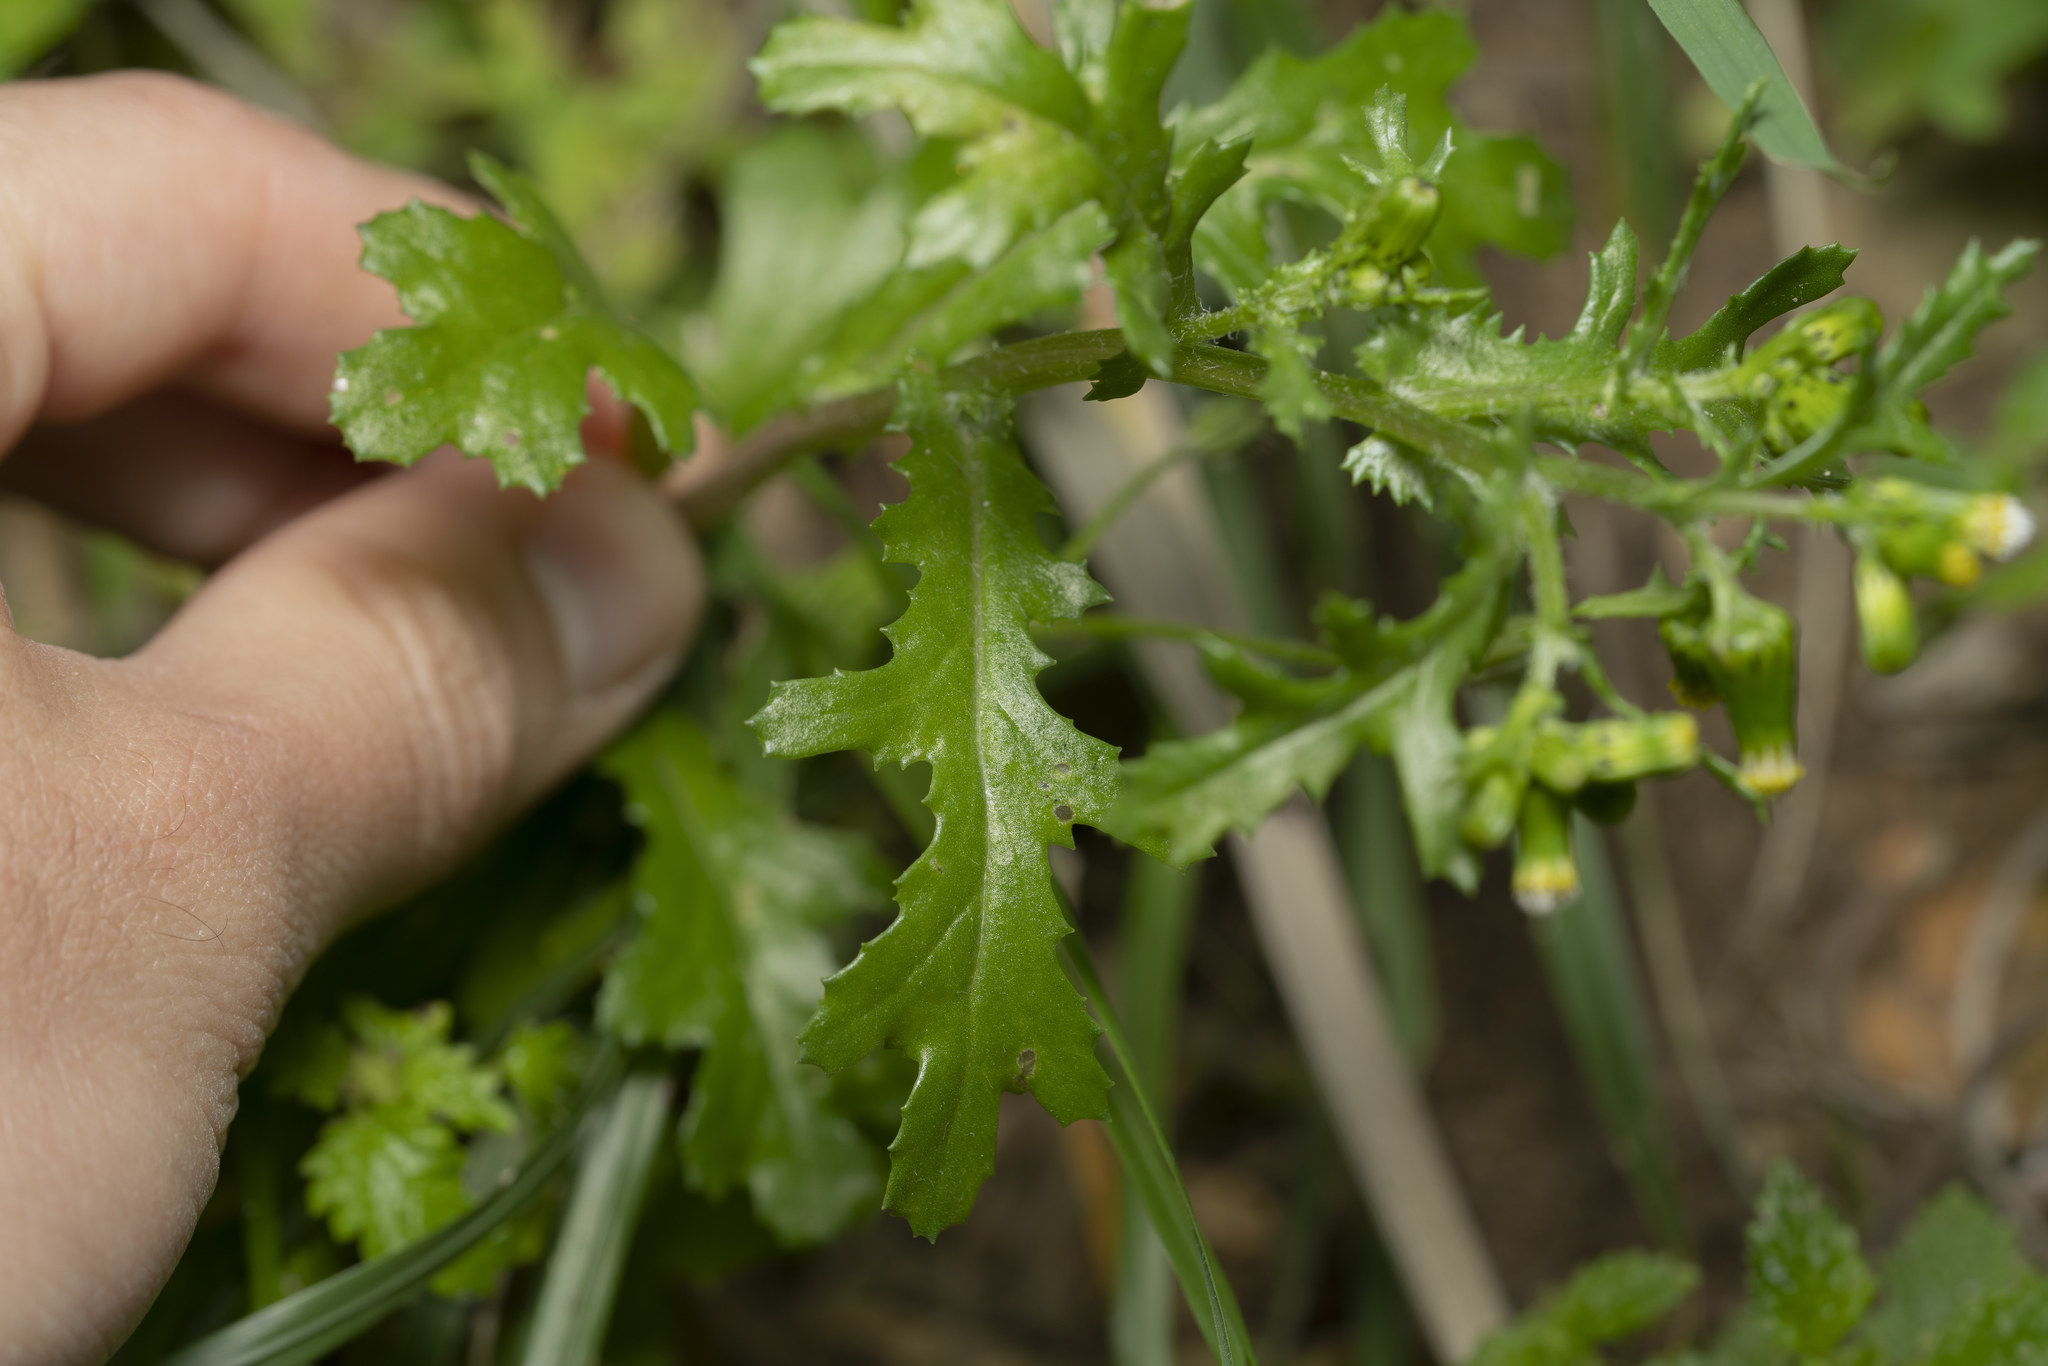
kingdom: Plantae
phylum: Tracheophyta
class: Magnoliopsida
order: Asterales
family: Asteraceae
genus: Senecio
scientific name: Senecio vulgaris
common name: Old-man-in-the-spring
